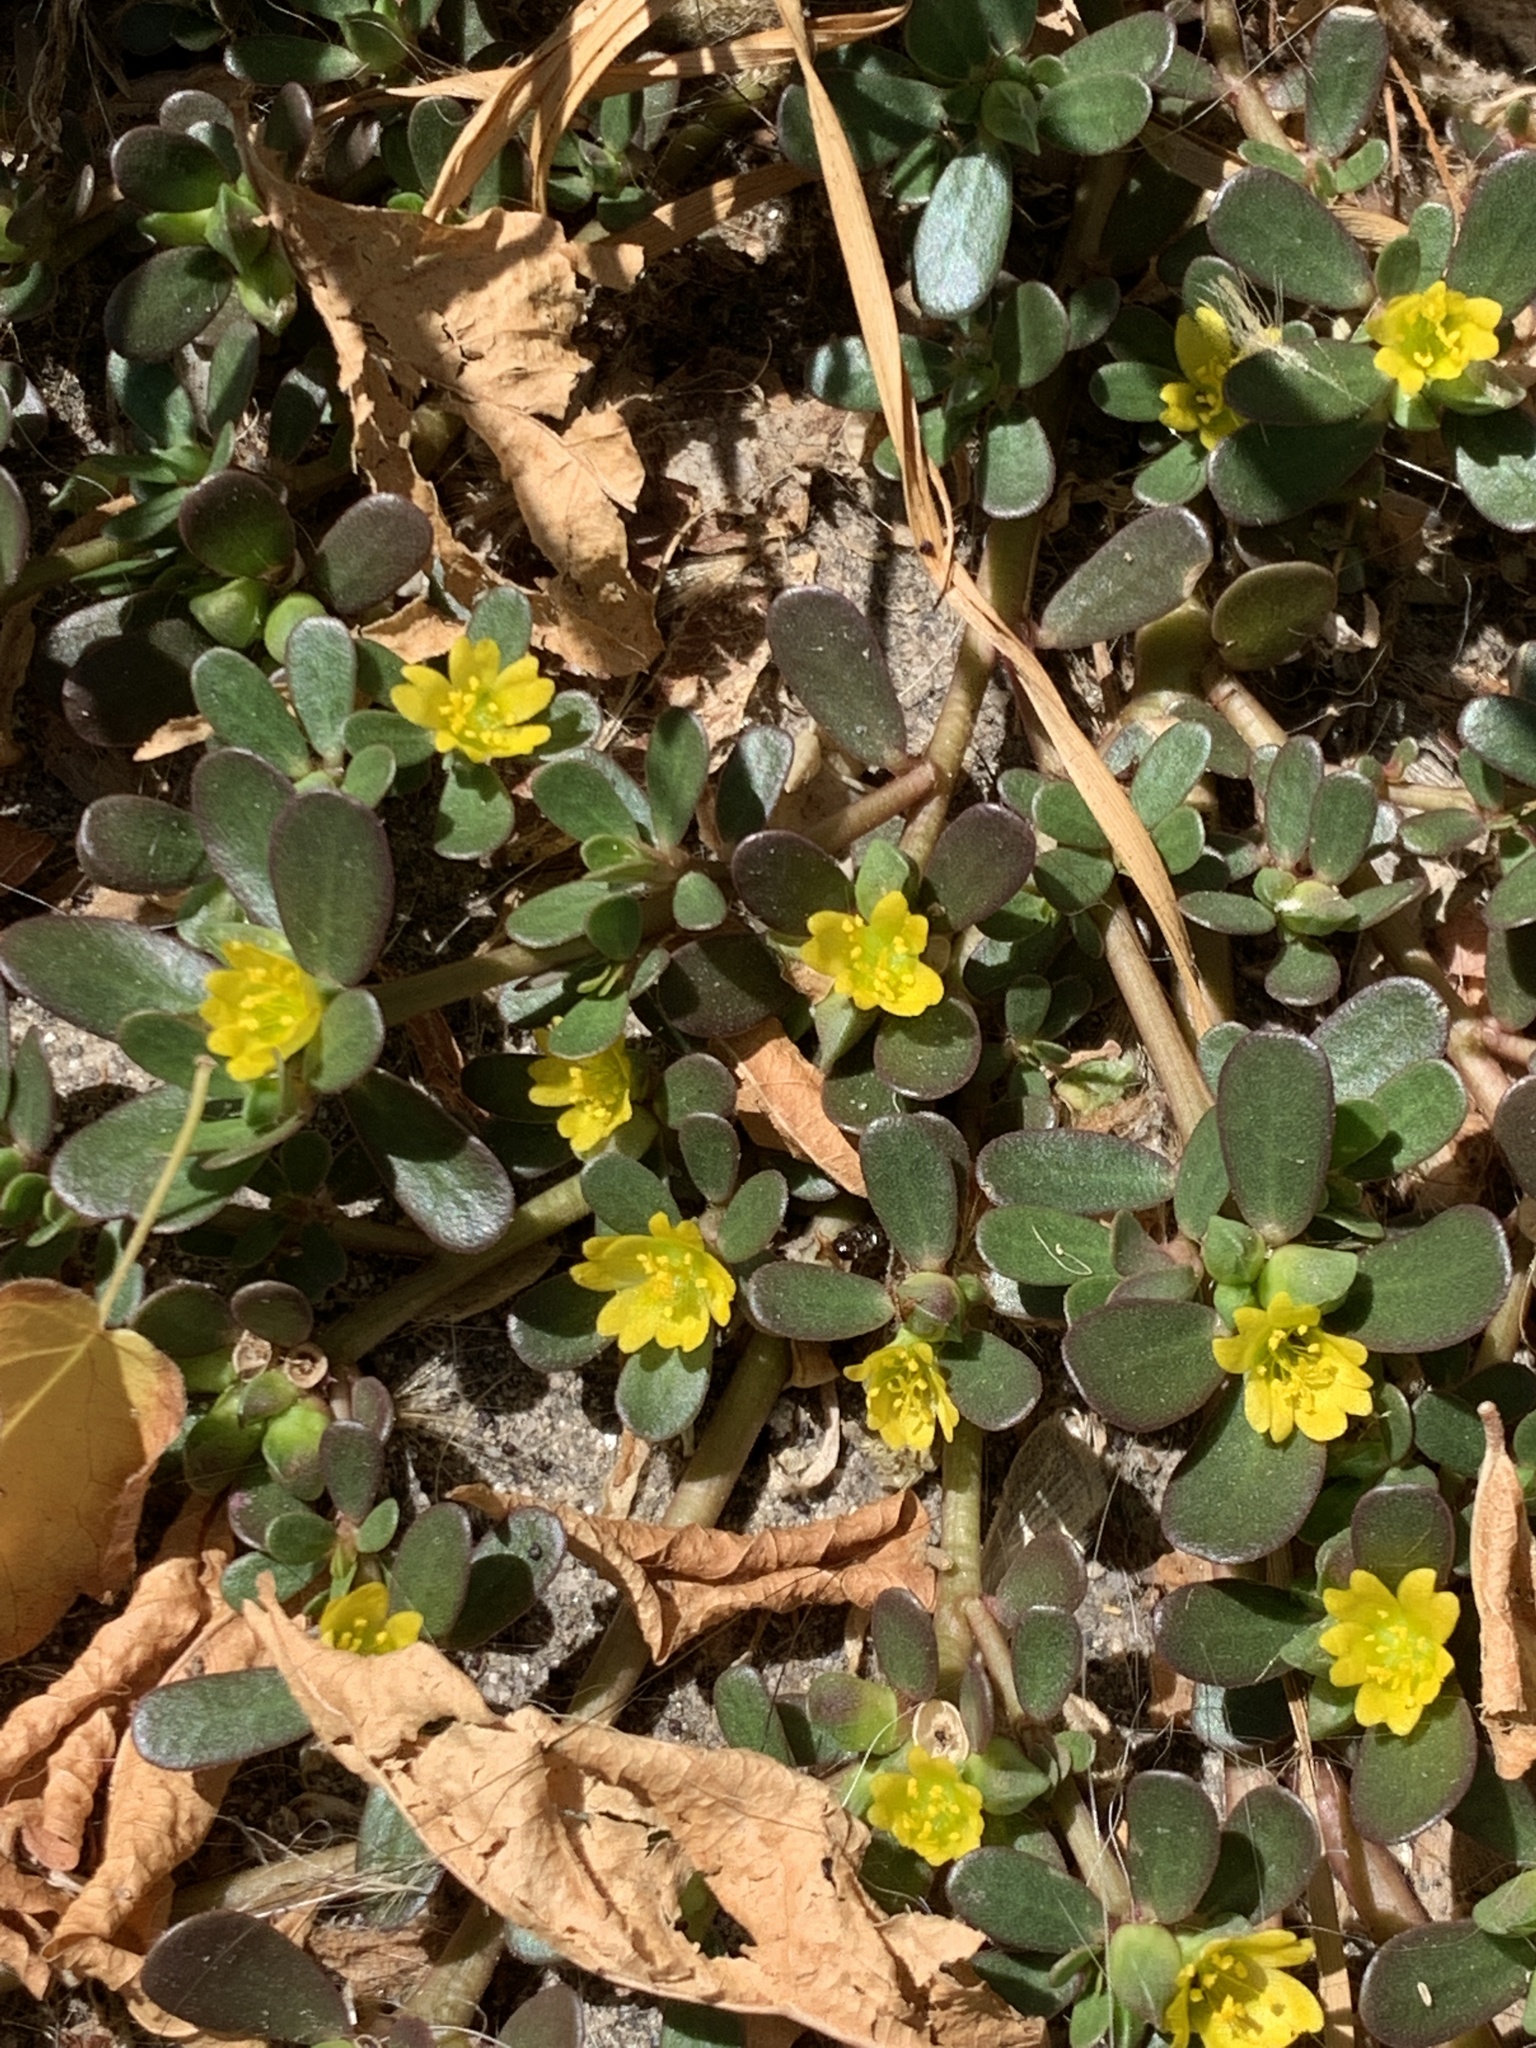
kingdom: Plantae
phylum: Tracheophyta
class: Magnoliopsida
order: Caryophyllales
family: Portulacaceae
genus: Portulaca
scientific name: Portulaca oleracea
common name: Common purslane
